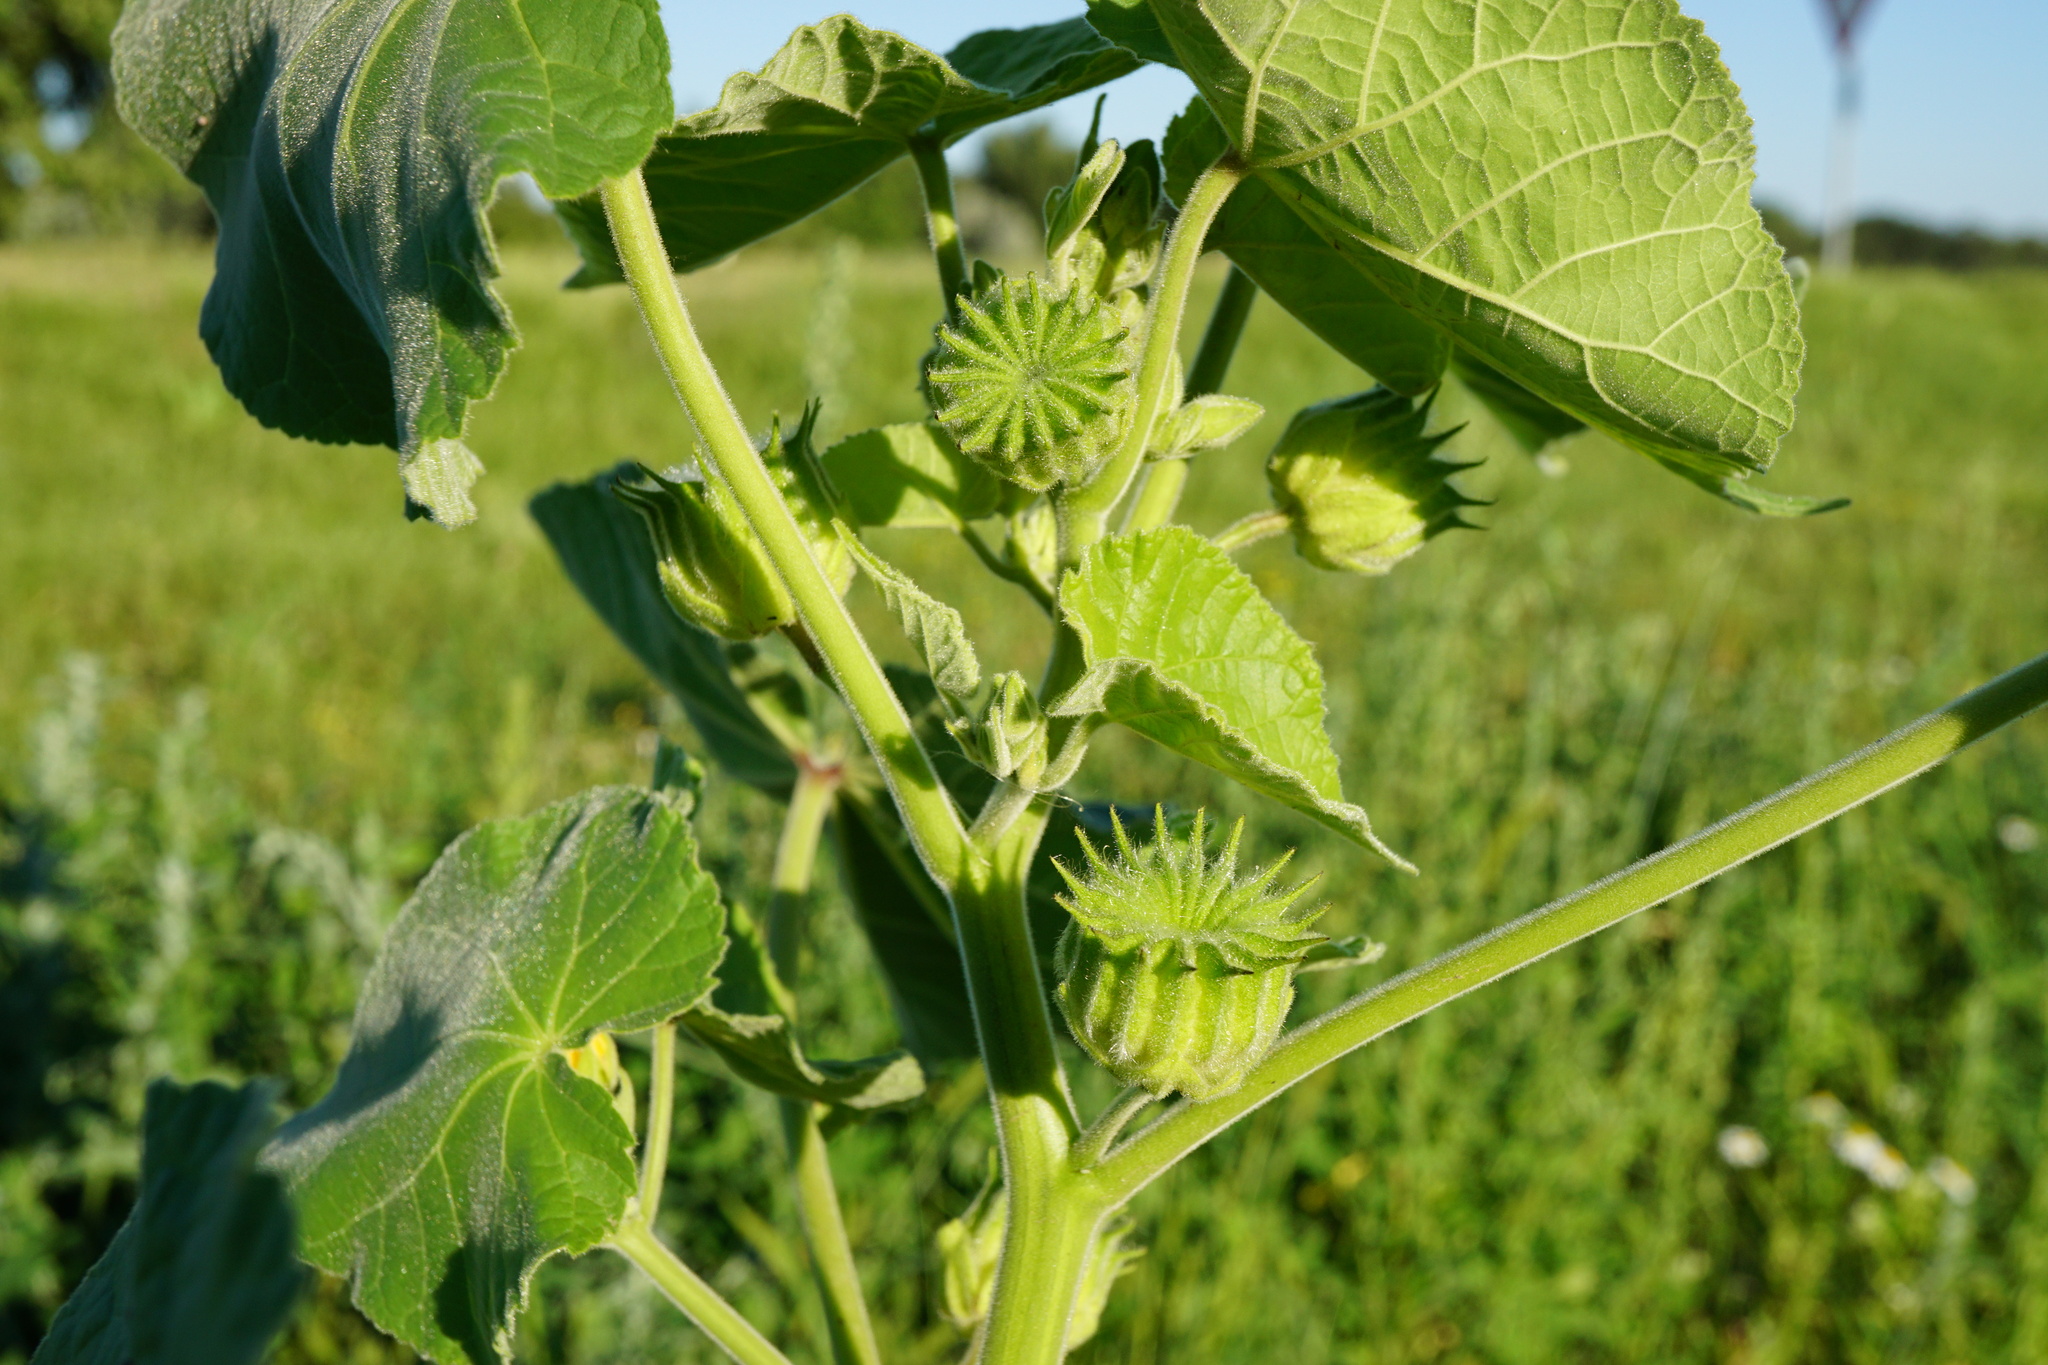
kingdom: Plantae
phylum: Tracheophyta
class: Magnoliopsida
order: Malvales
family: Malvaceae
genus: Abutilon
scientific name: Abutilon theophrasti
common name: Velvetleaf
